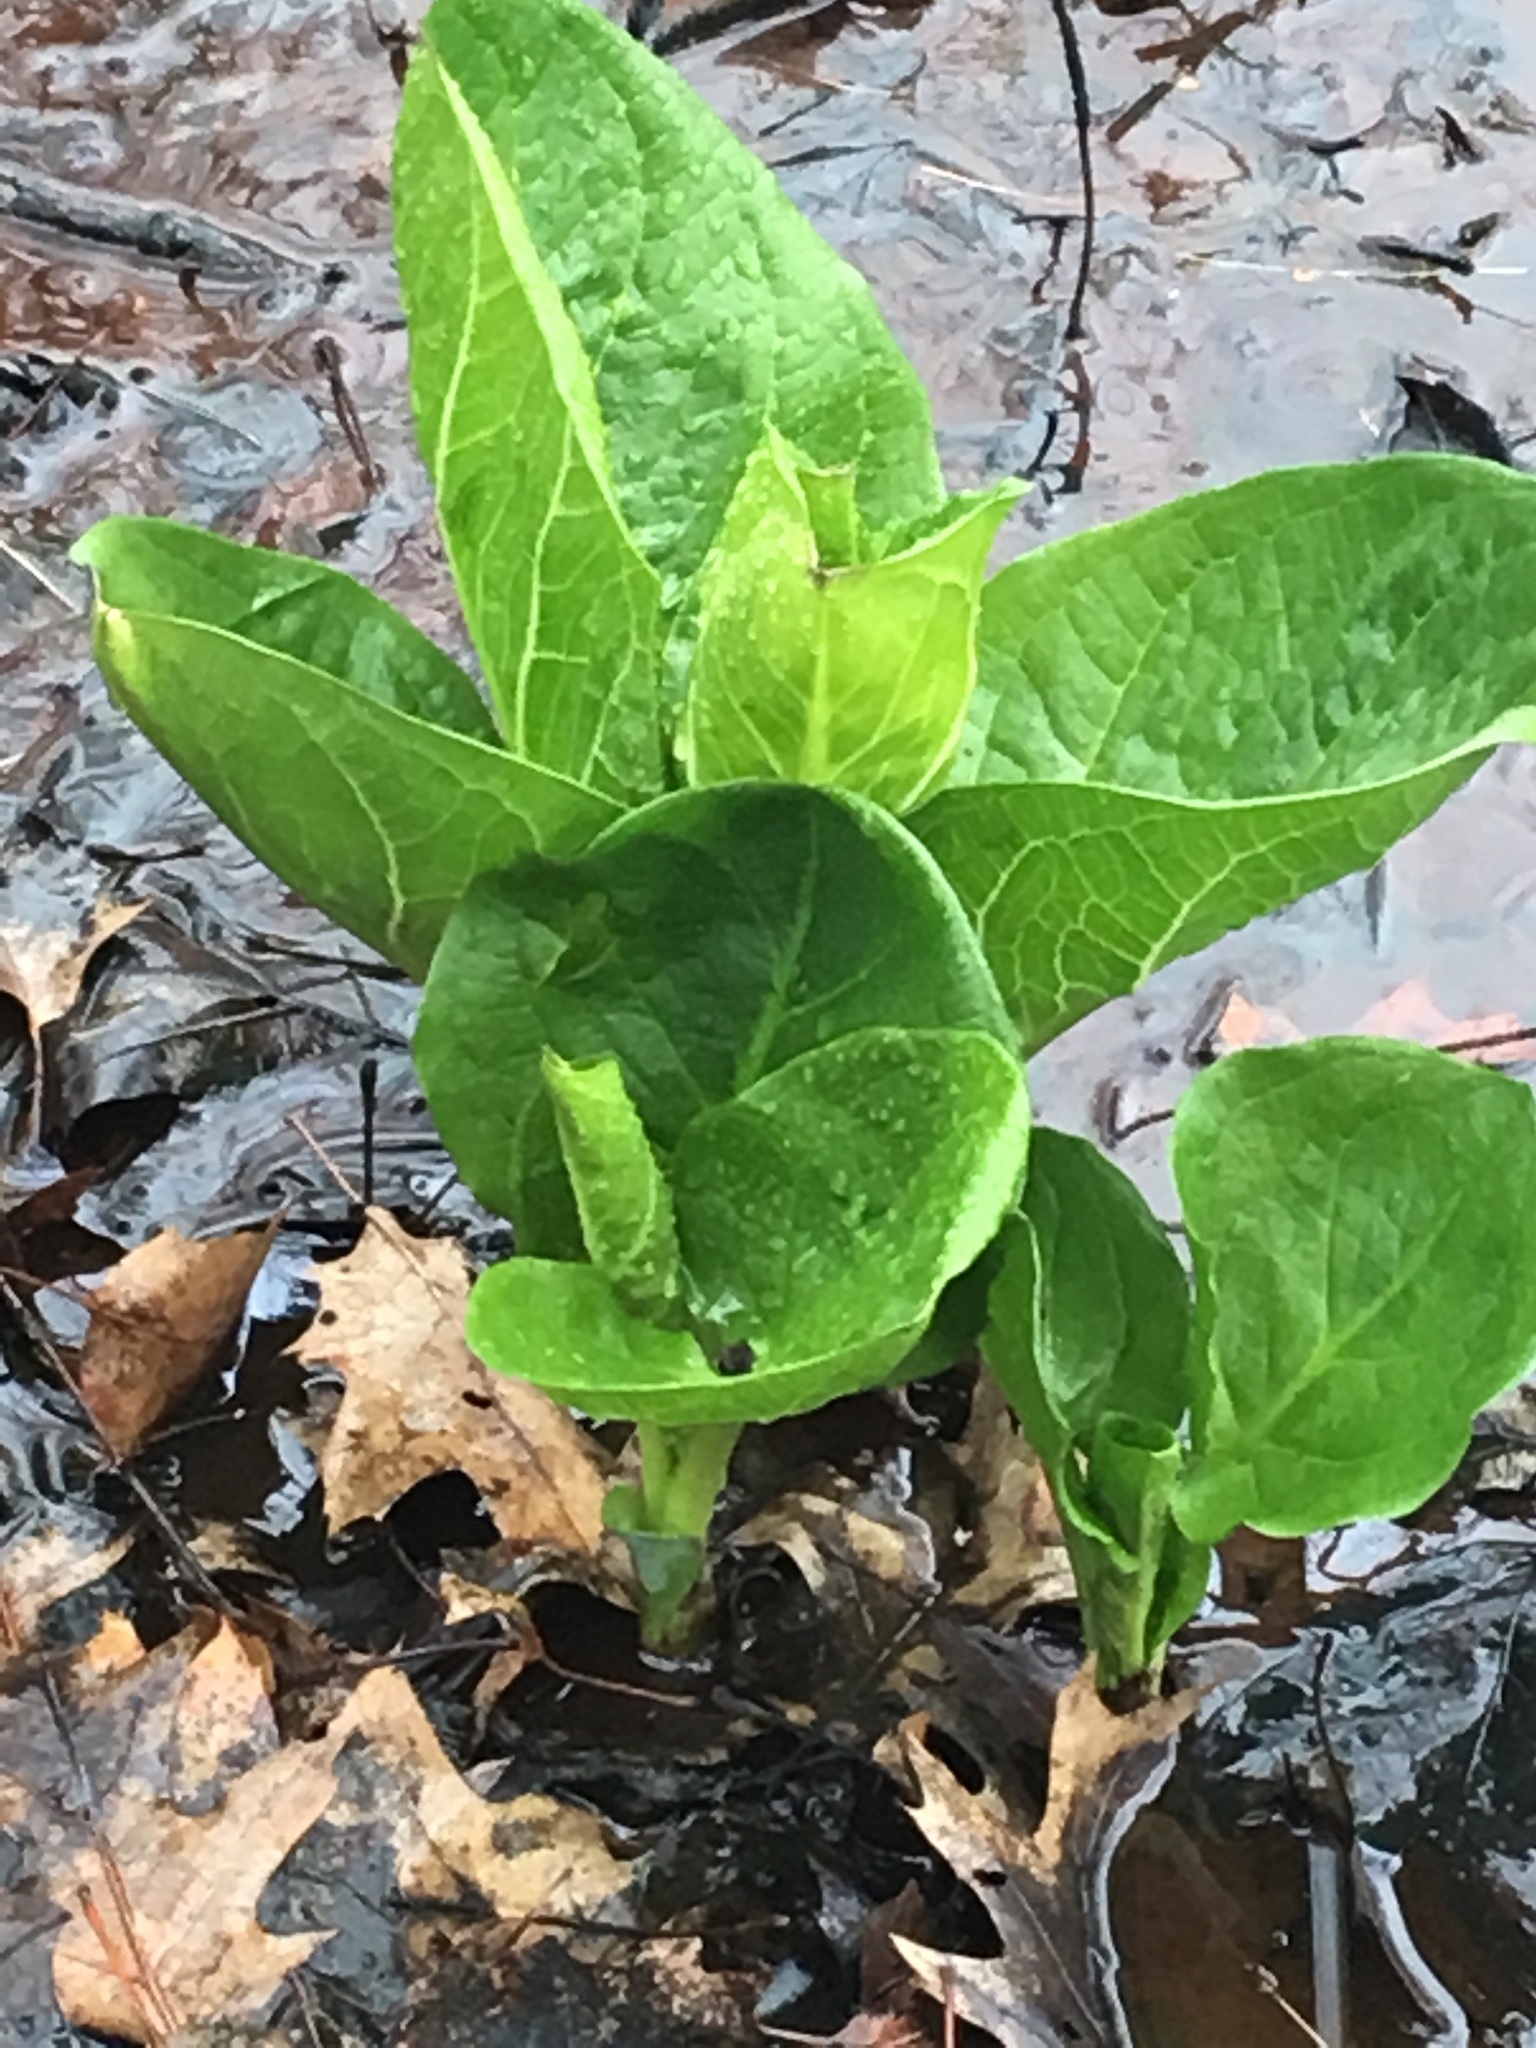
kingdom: Plantae
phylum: Tracheophyta
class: Liliopsida
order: Alismatales
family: Araceae
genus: Symplocarpus
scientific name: Symplocarpus foetidus
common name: Eastern skunk cabbage
